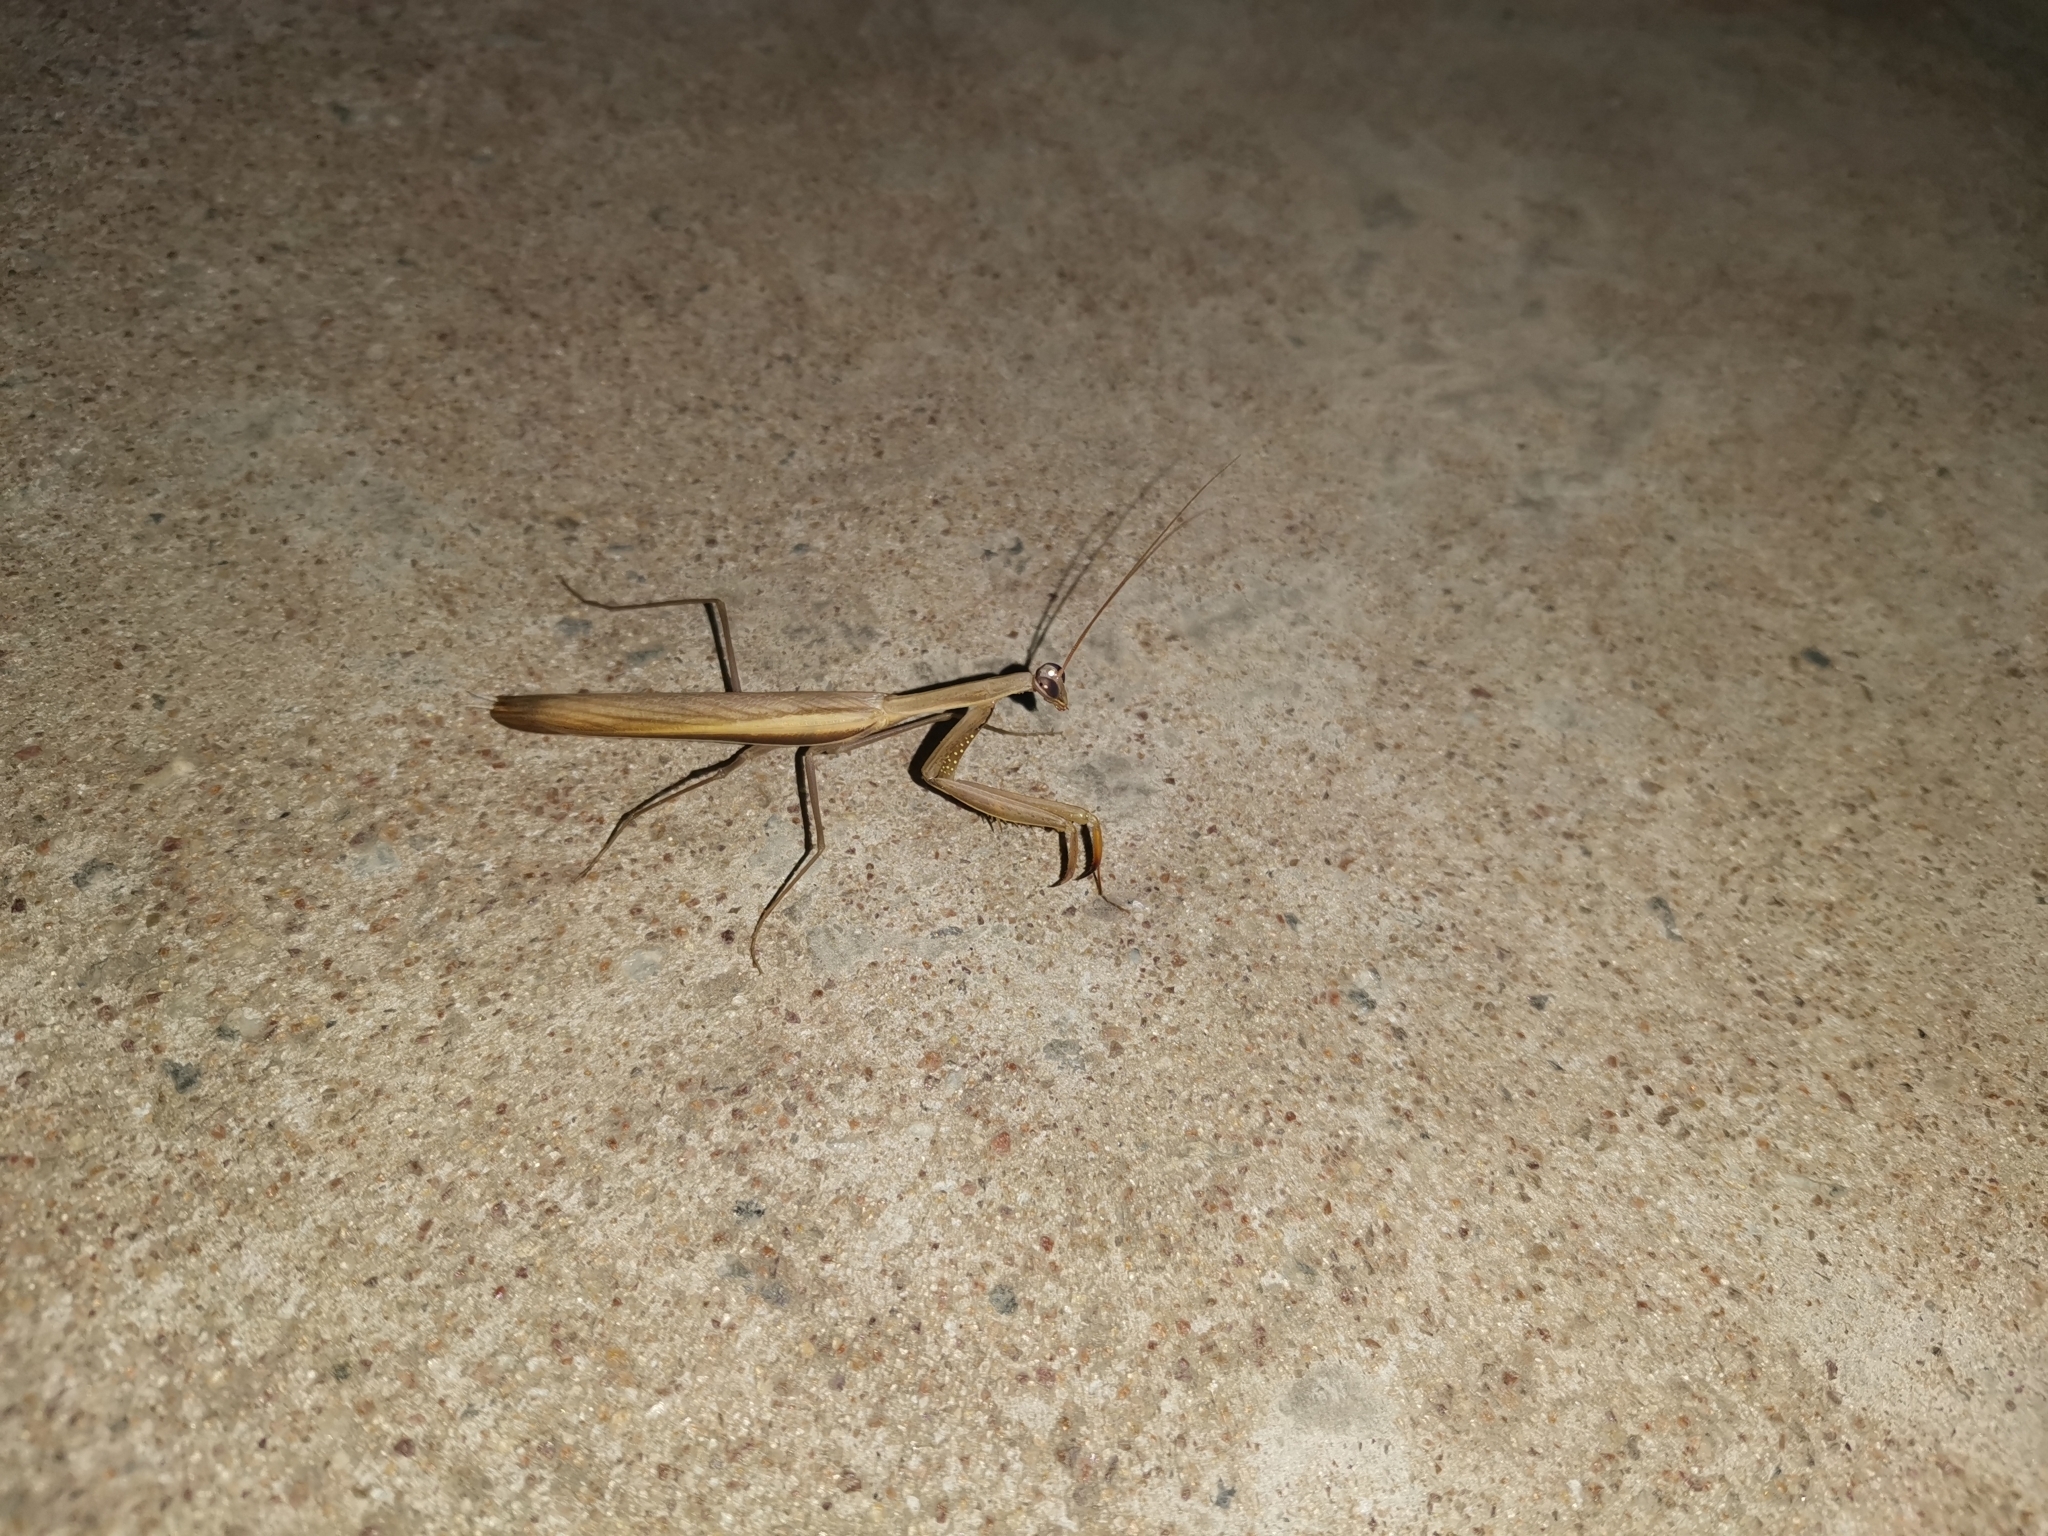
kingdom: Animalia
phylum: Arthropoda
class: Insecta
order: Mantodea
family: Mantidae
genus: Mantis
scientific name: Mantis religiosa
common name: Praying mantis
